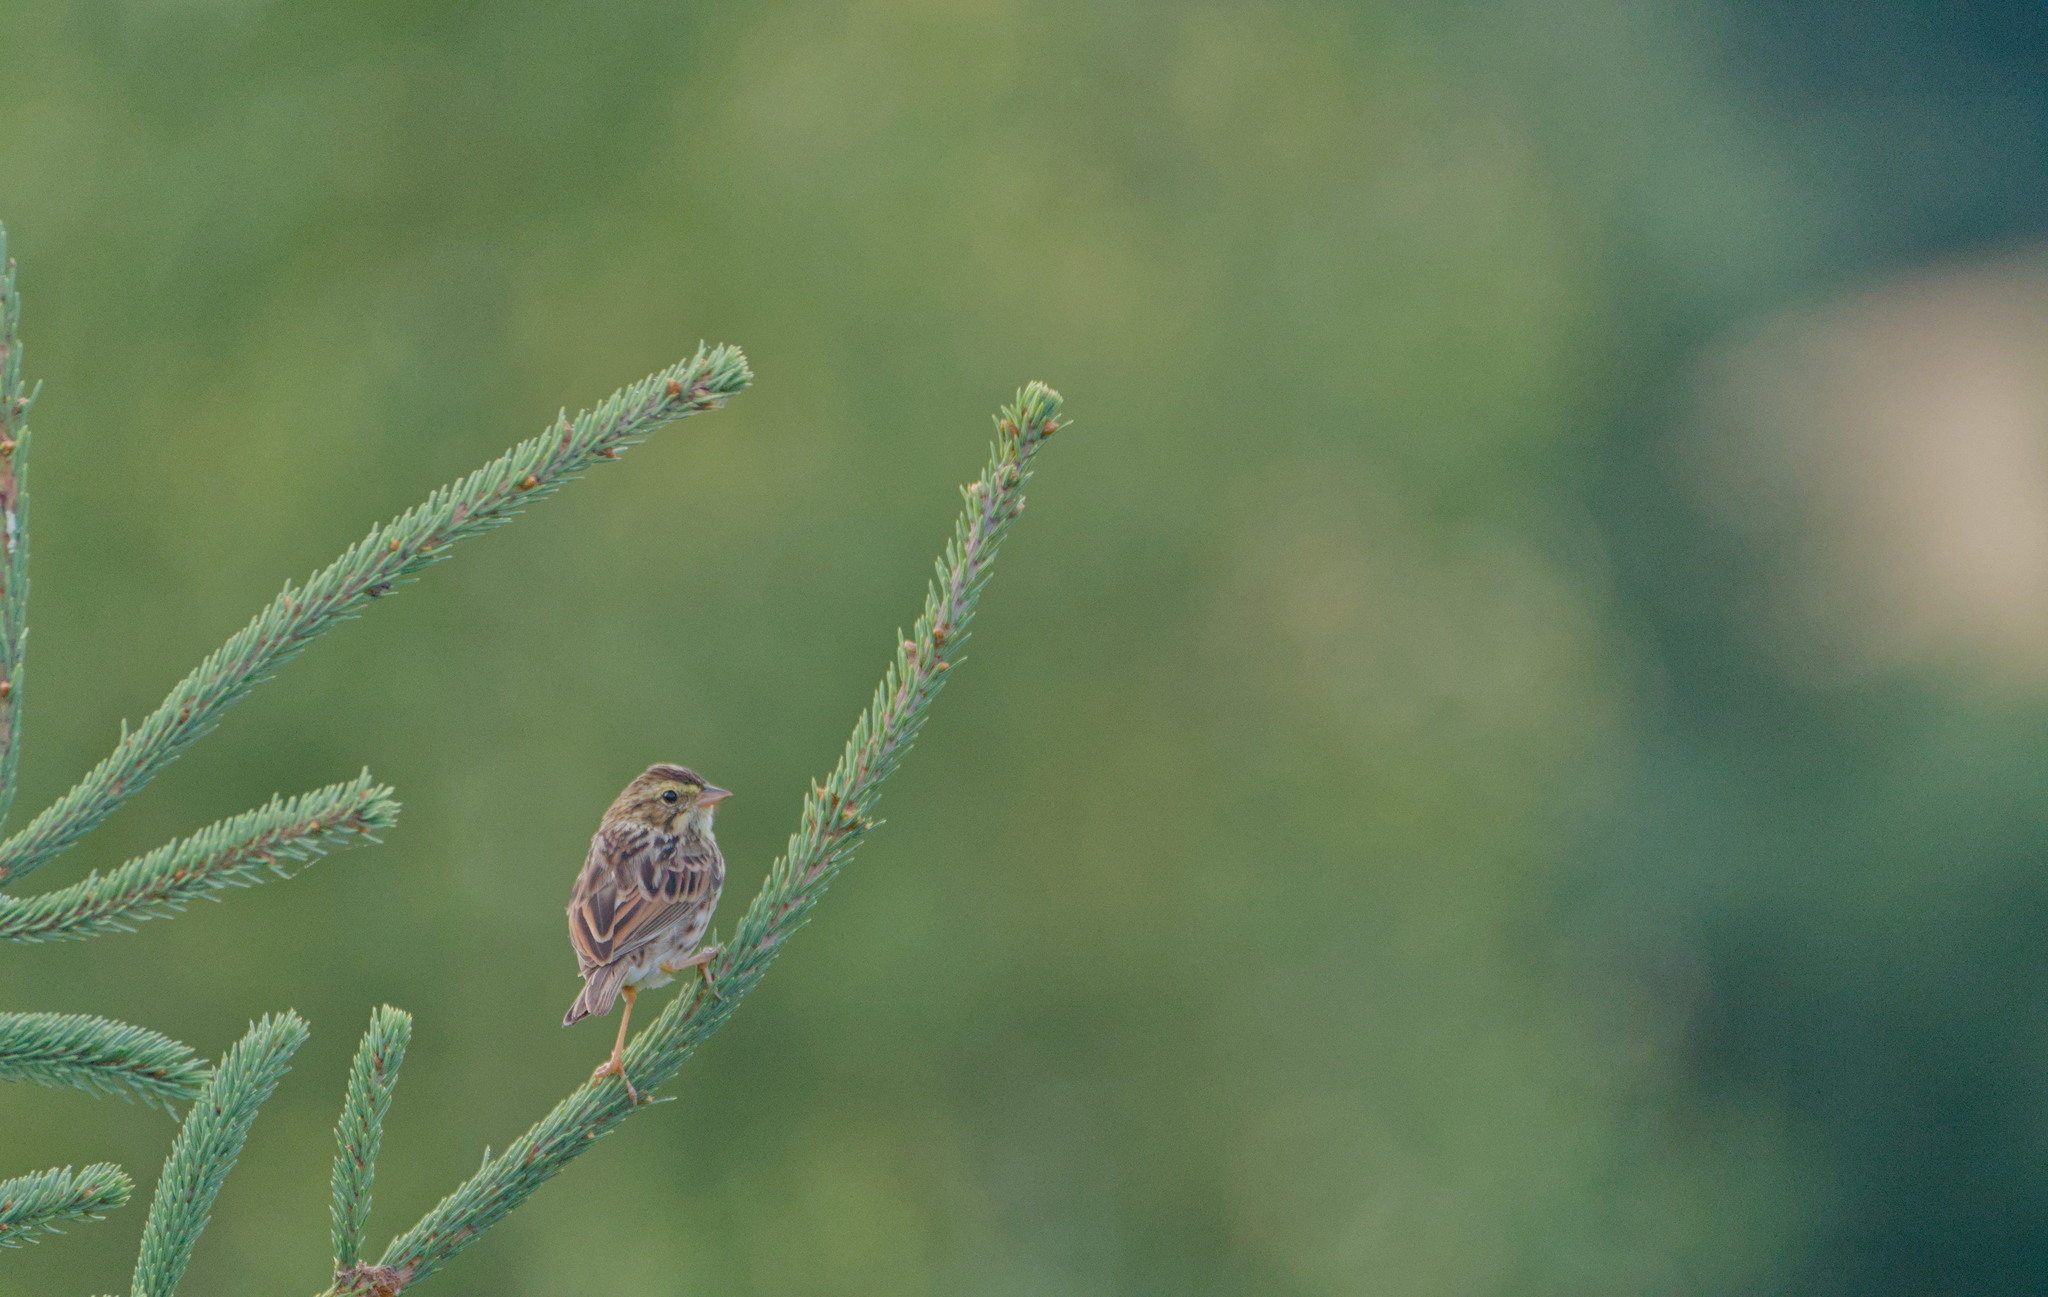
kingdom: Animalia
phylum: Chordata
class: Aves
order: Passeriformes
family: Passerellidae
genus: Passerculus
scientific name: Passerculus sandwichensis
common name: Savannah sparrow
